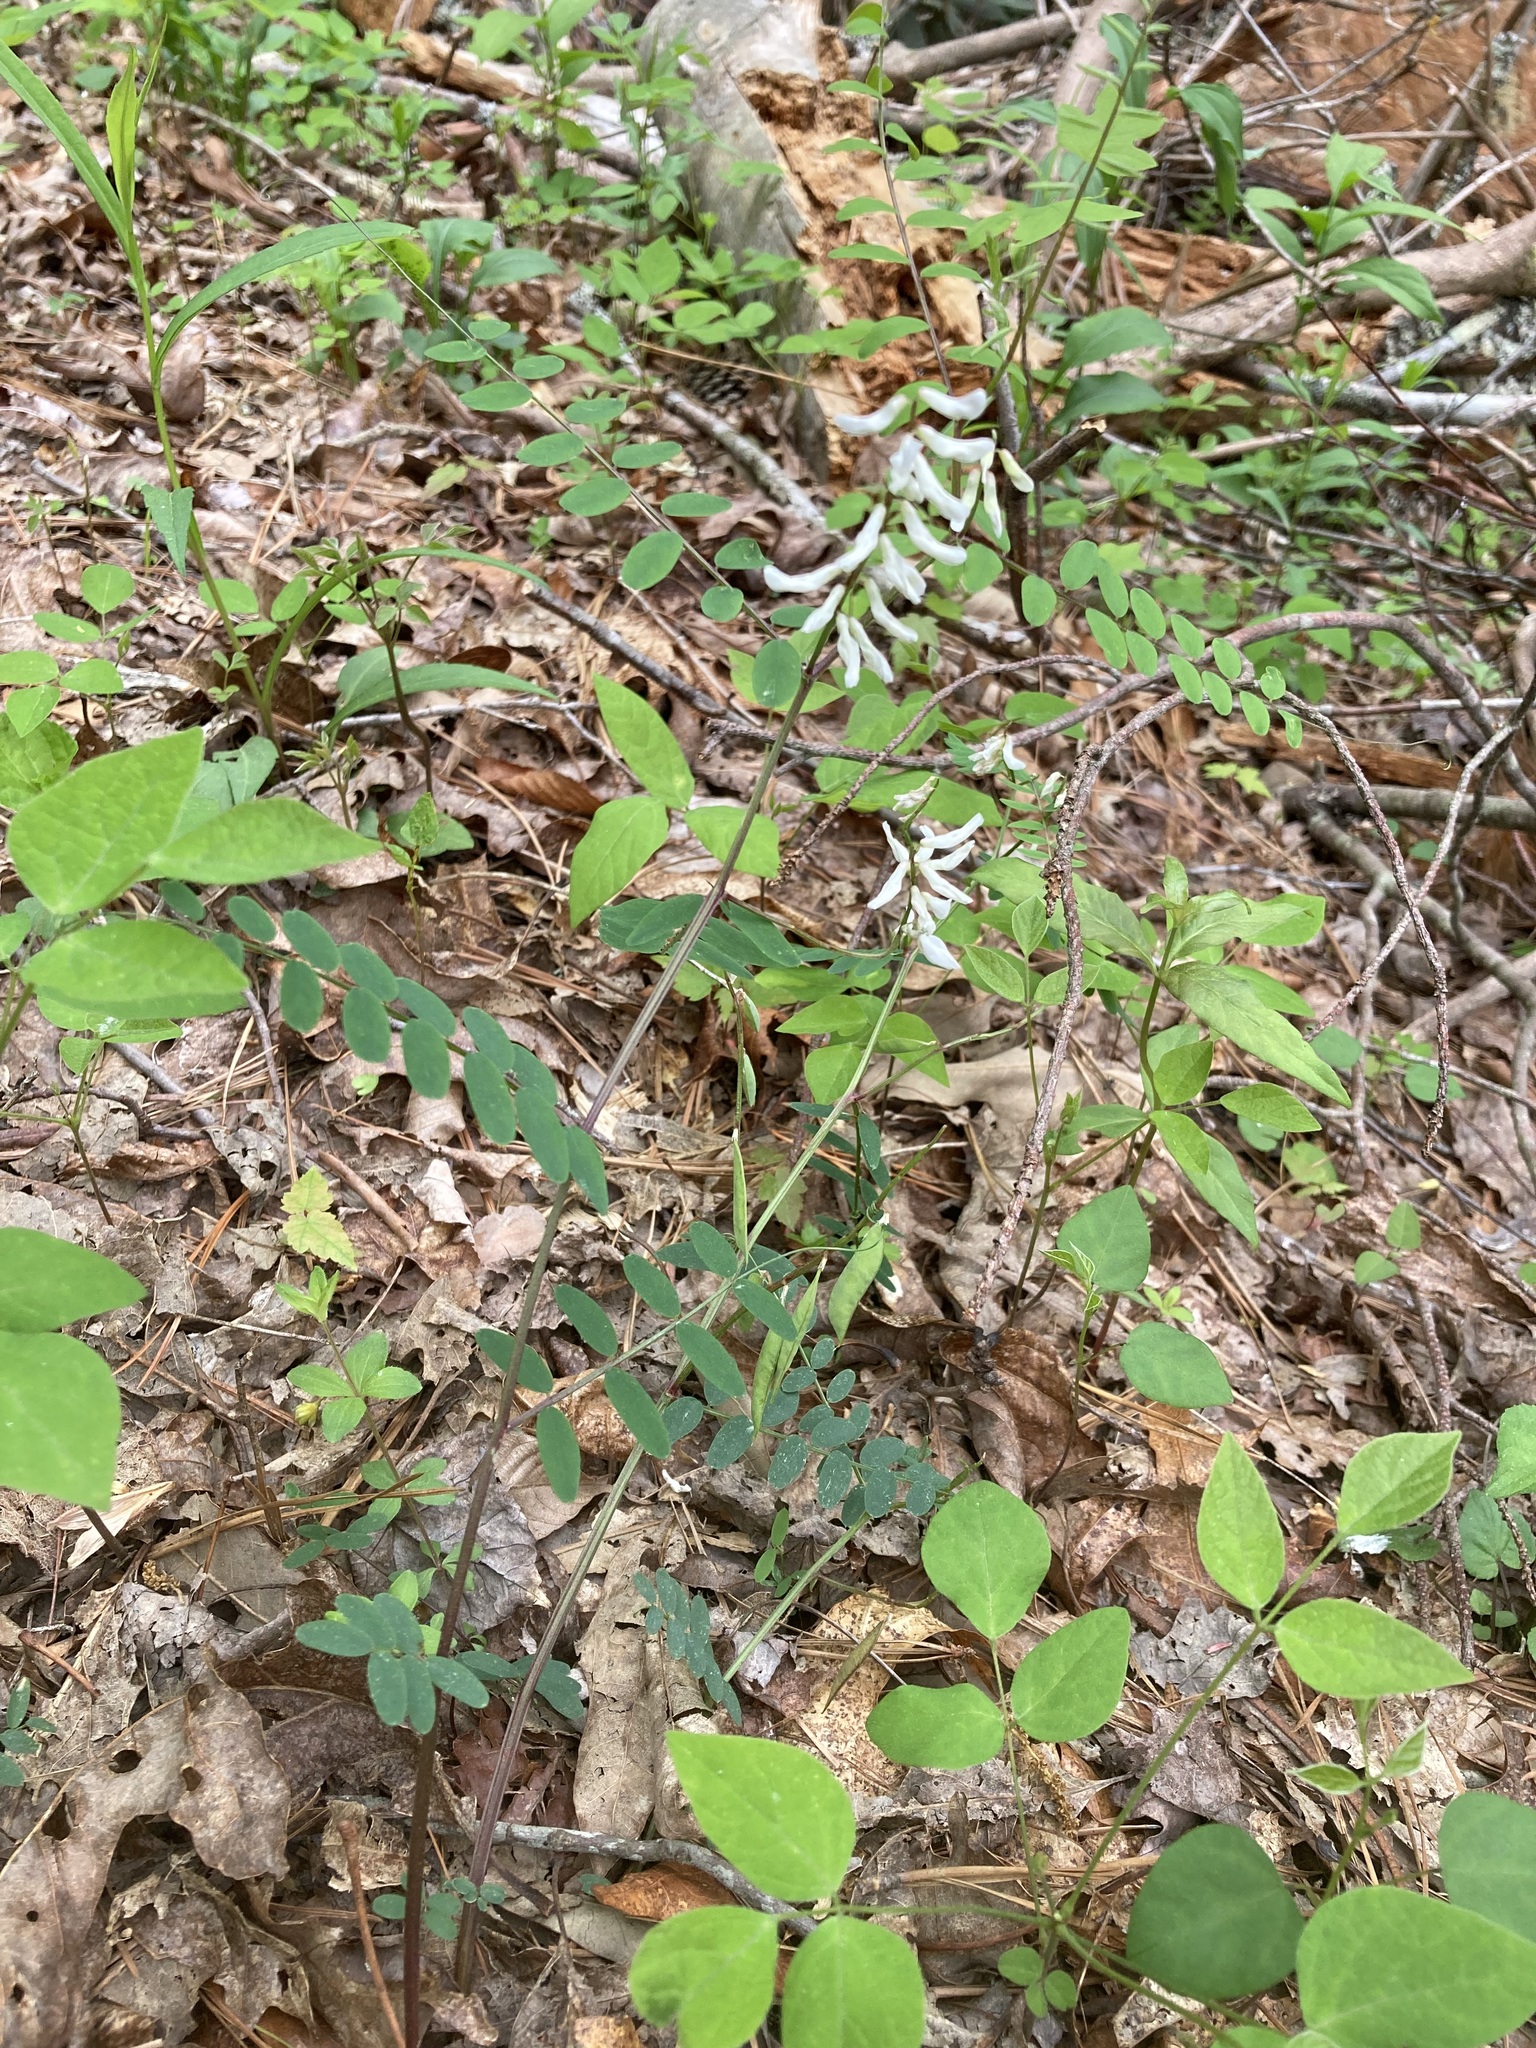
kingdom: Plantae
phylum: Tracheophyta
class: Magnoliopsida
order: Fabales
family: Fabaceae
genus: Vicia
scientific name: Vicia caroliniana
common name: Carolina vetch
